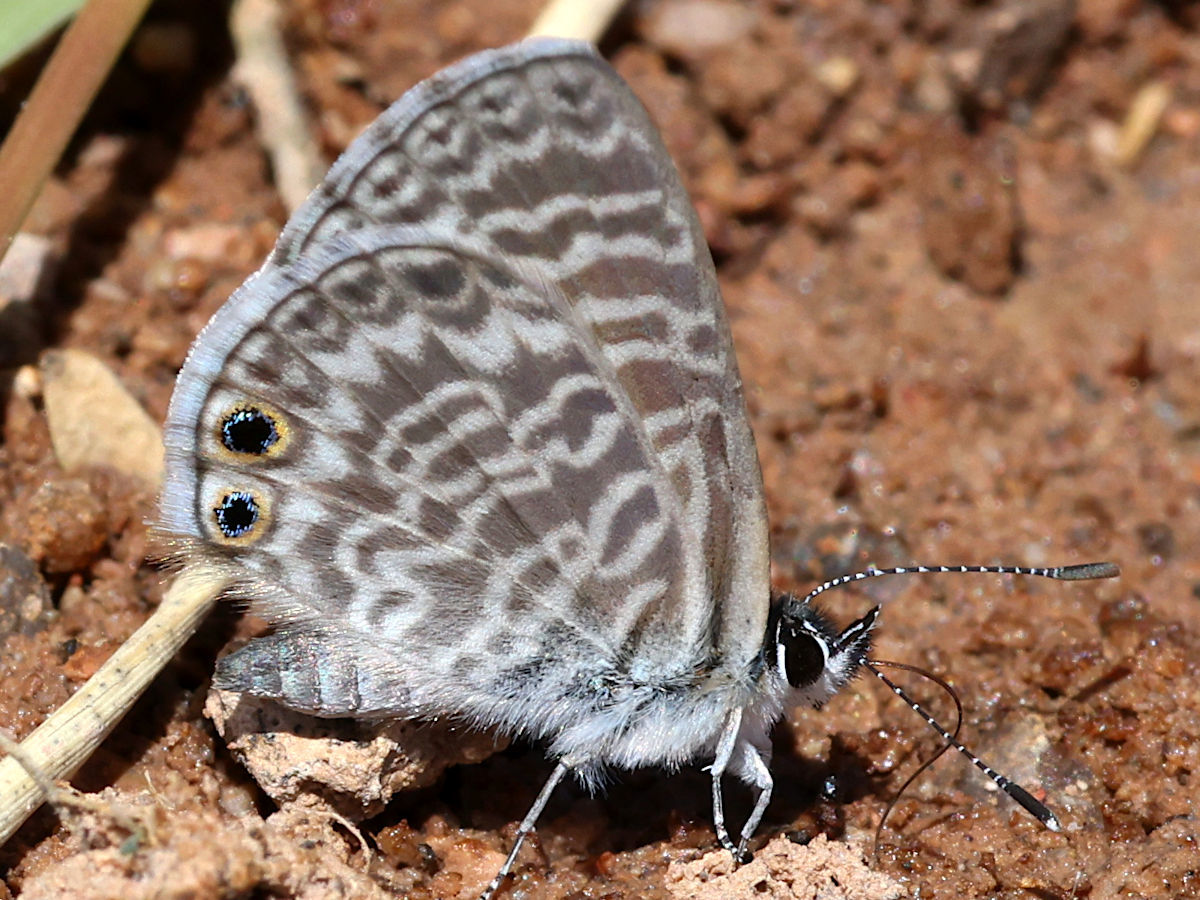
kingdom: Animalia
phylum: Arthropoda
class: Insecta
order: Lepidoptera
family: Lycaenidae
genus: Leptotes
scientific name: Leptotes marina
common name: Marine blue
